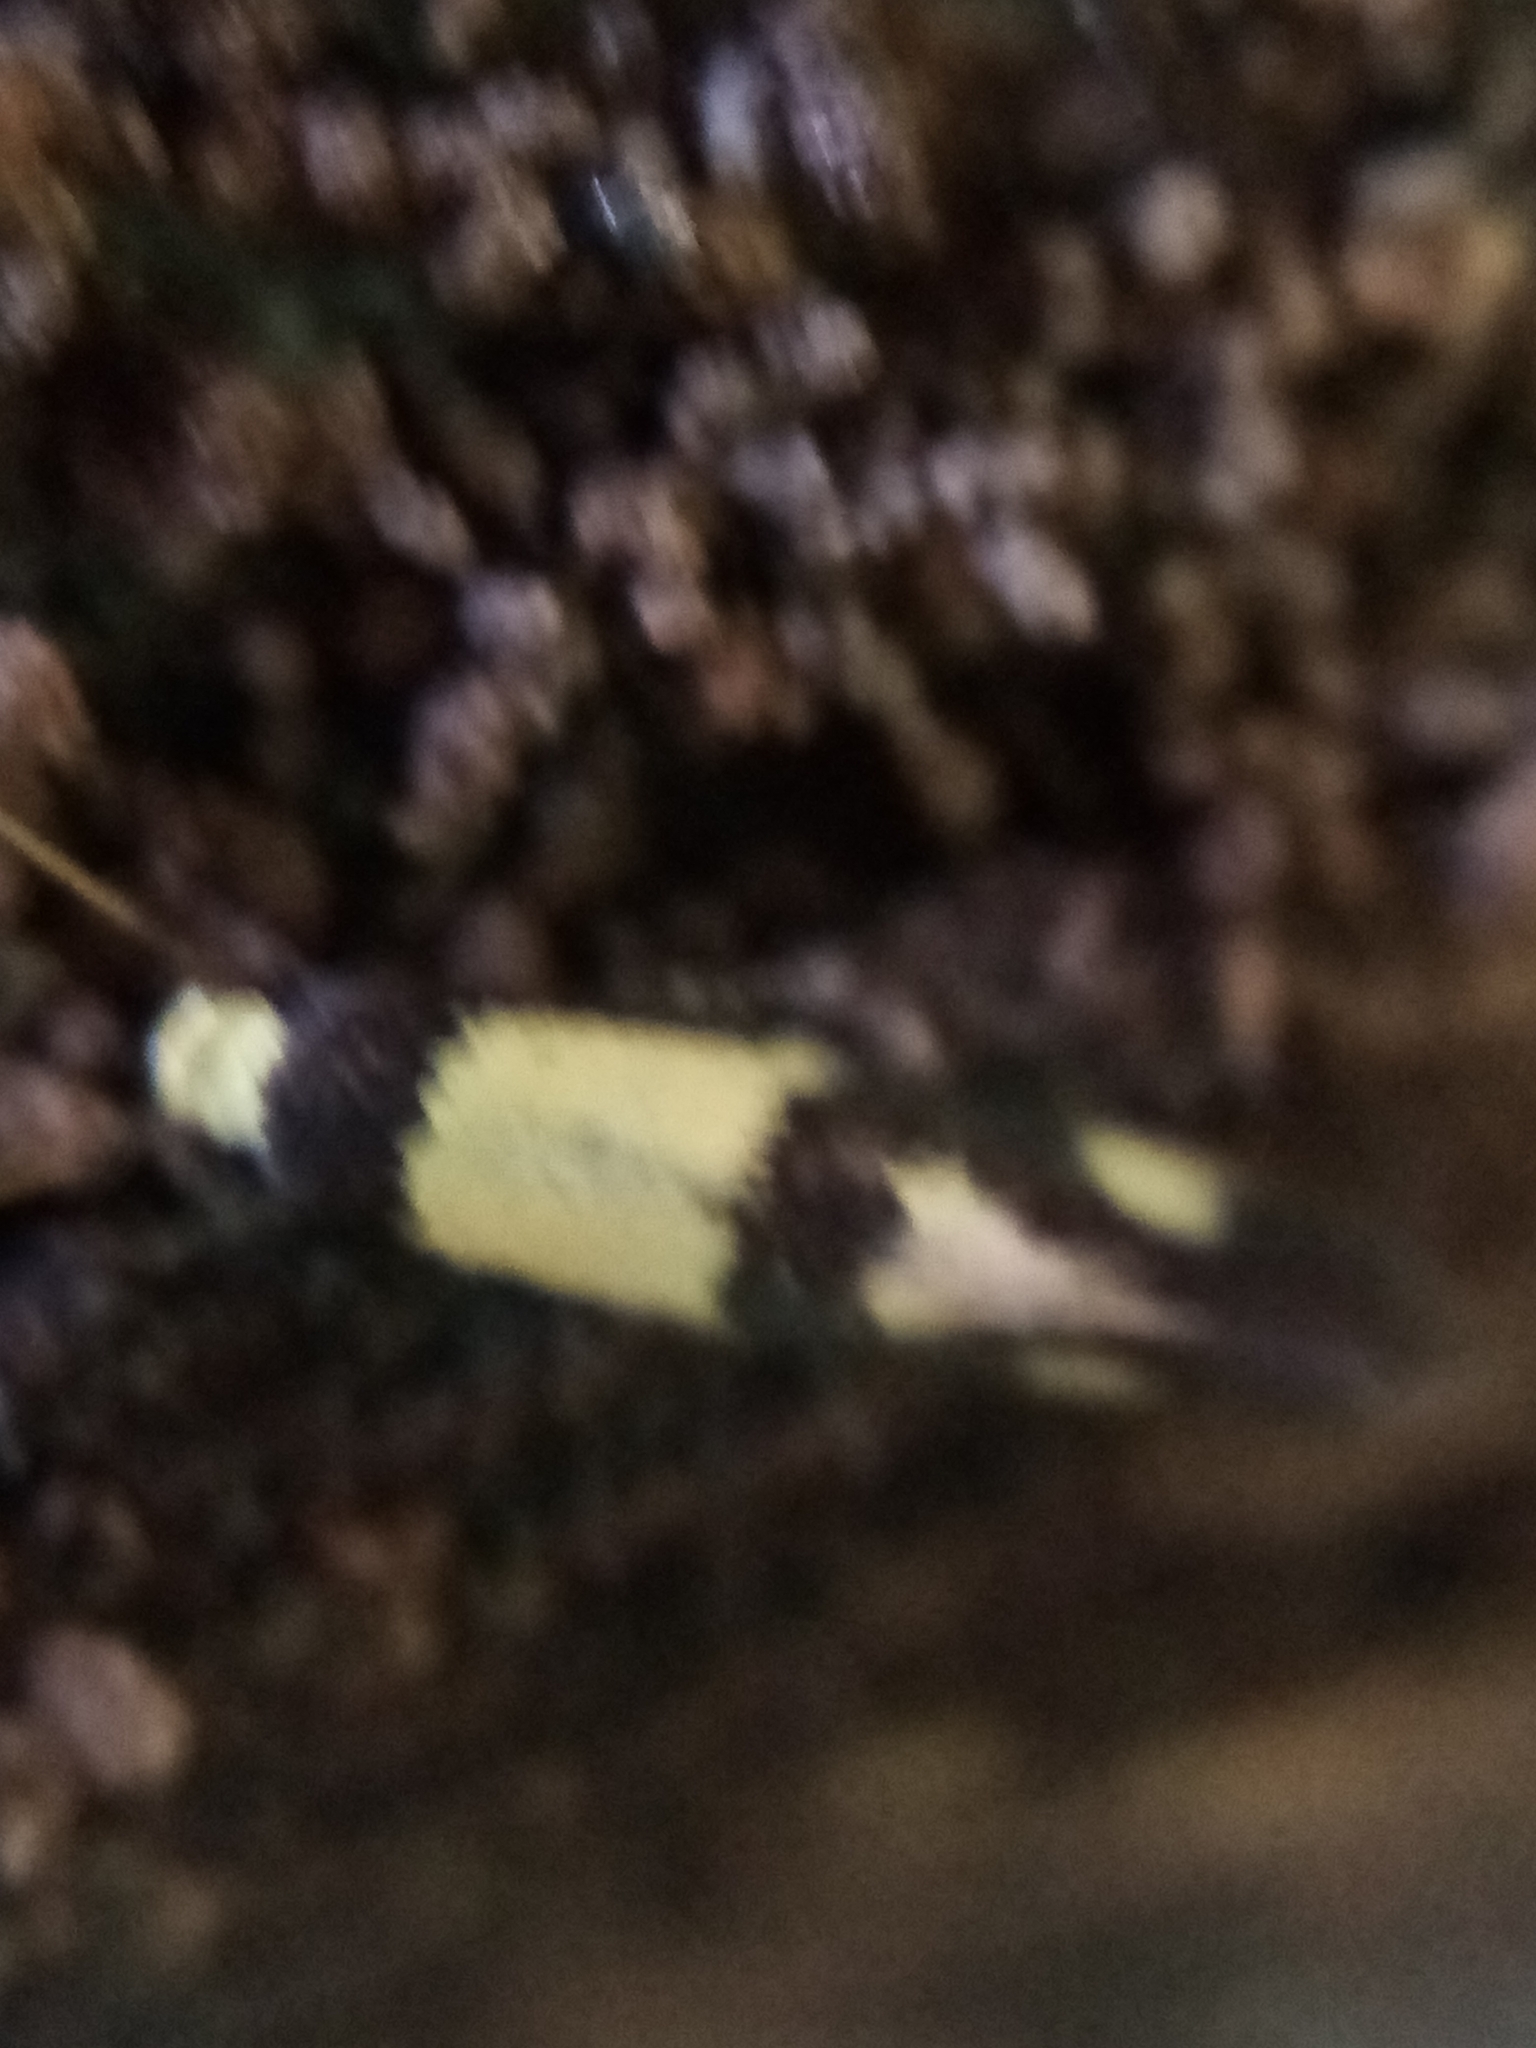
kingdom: Animalia
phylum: Arthropoda
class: Insecta
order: Lepidoptera
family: Tineidae
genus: Opogona
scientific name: Opogona comptella
